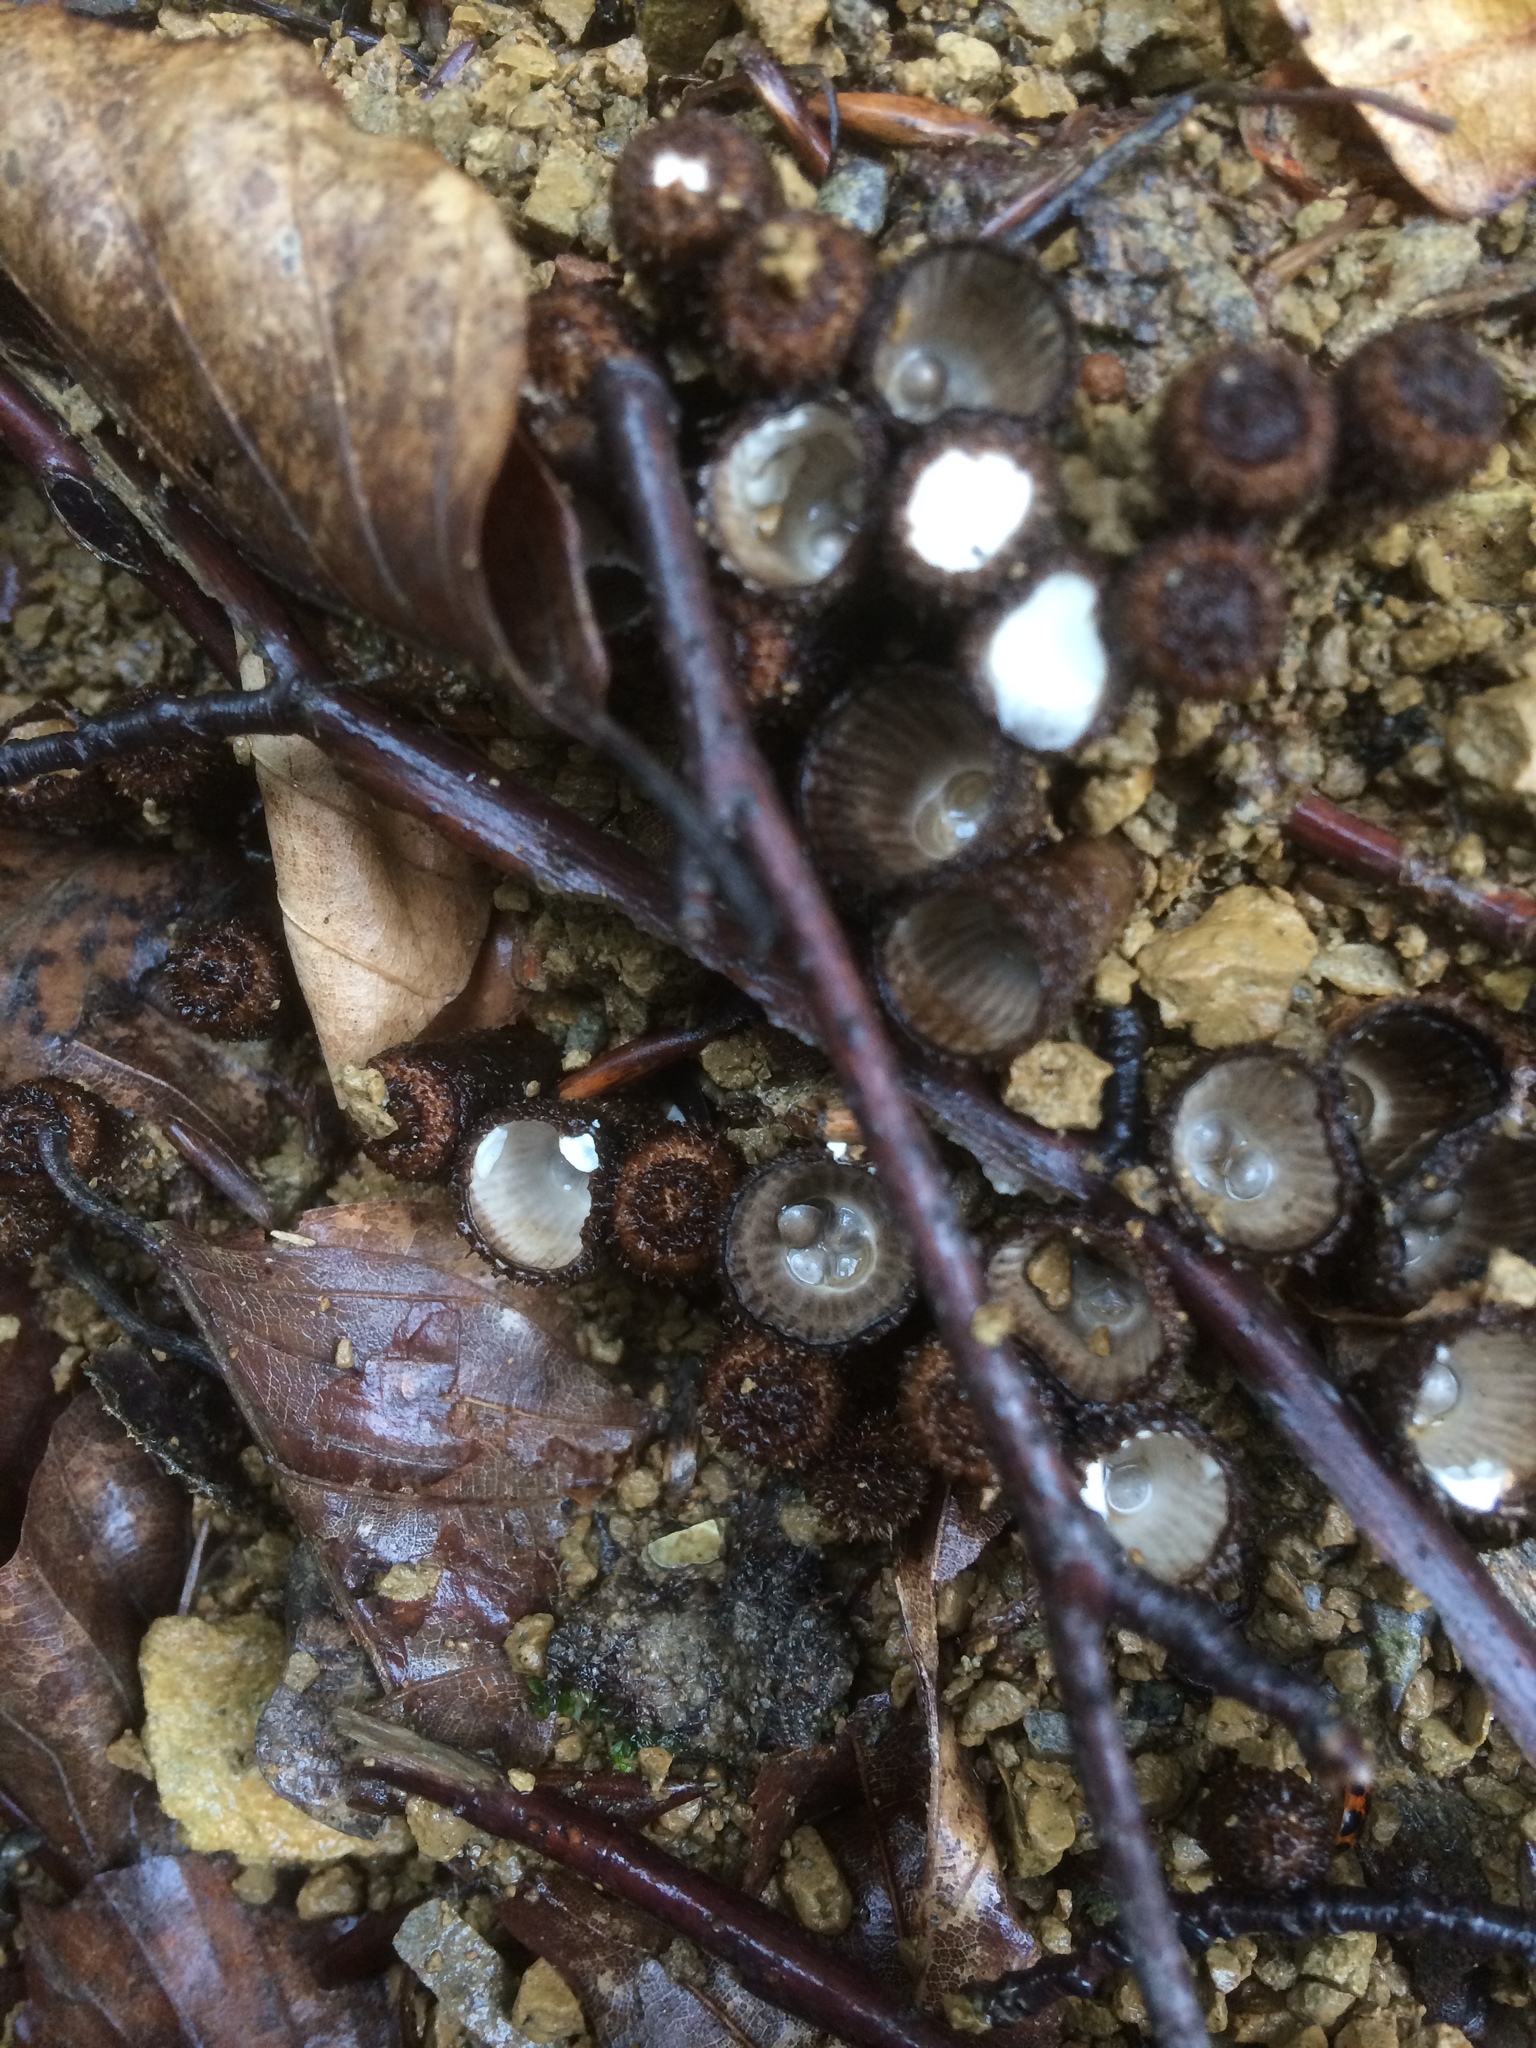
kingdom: Fungi
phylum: Basidiomycota
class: Agaricomycetes
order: Agaricales
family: Agaricaceae
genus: Cyathus
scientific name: Cyathus striatus
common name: Fluted bird's nest
